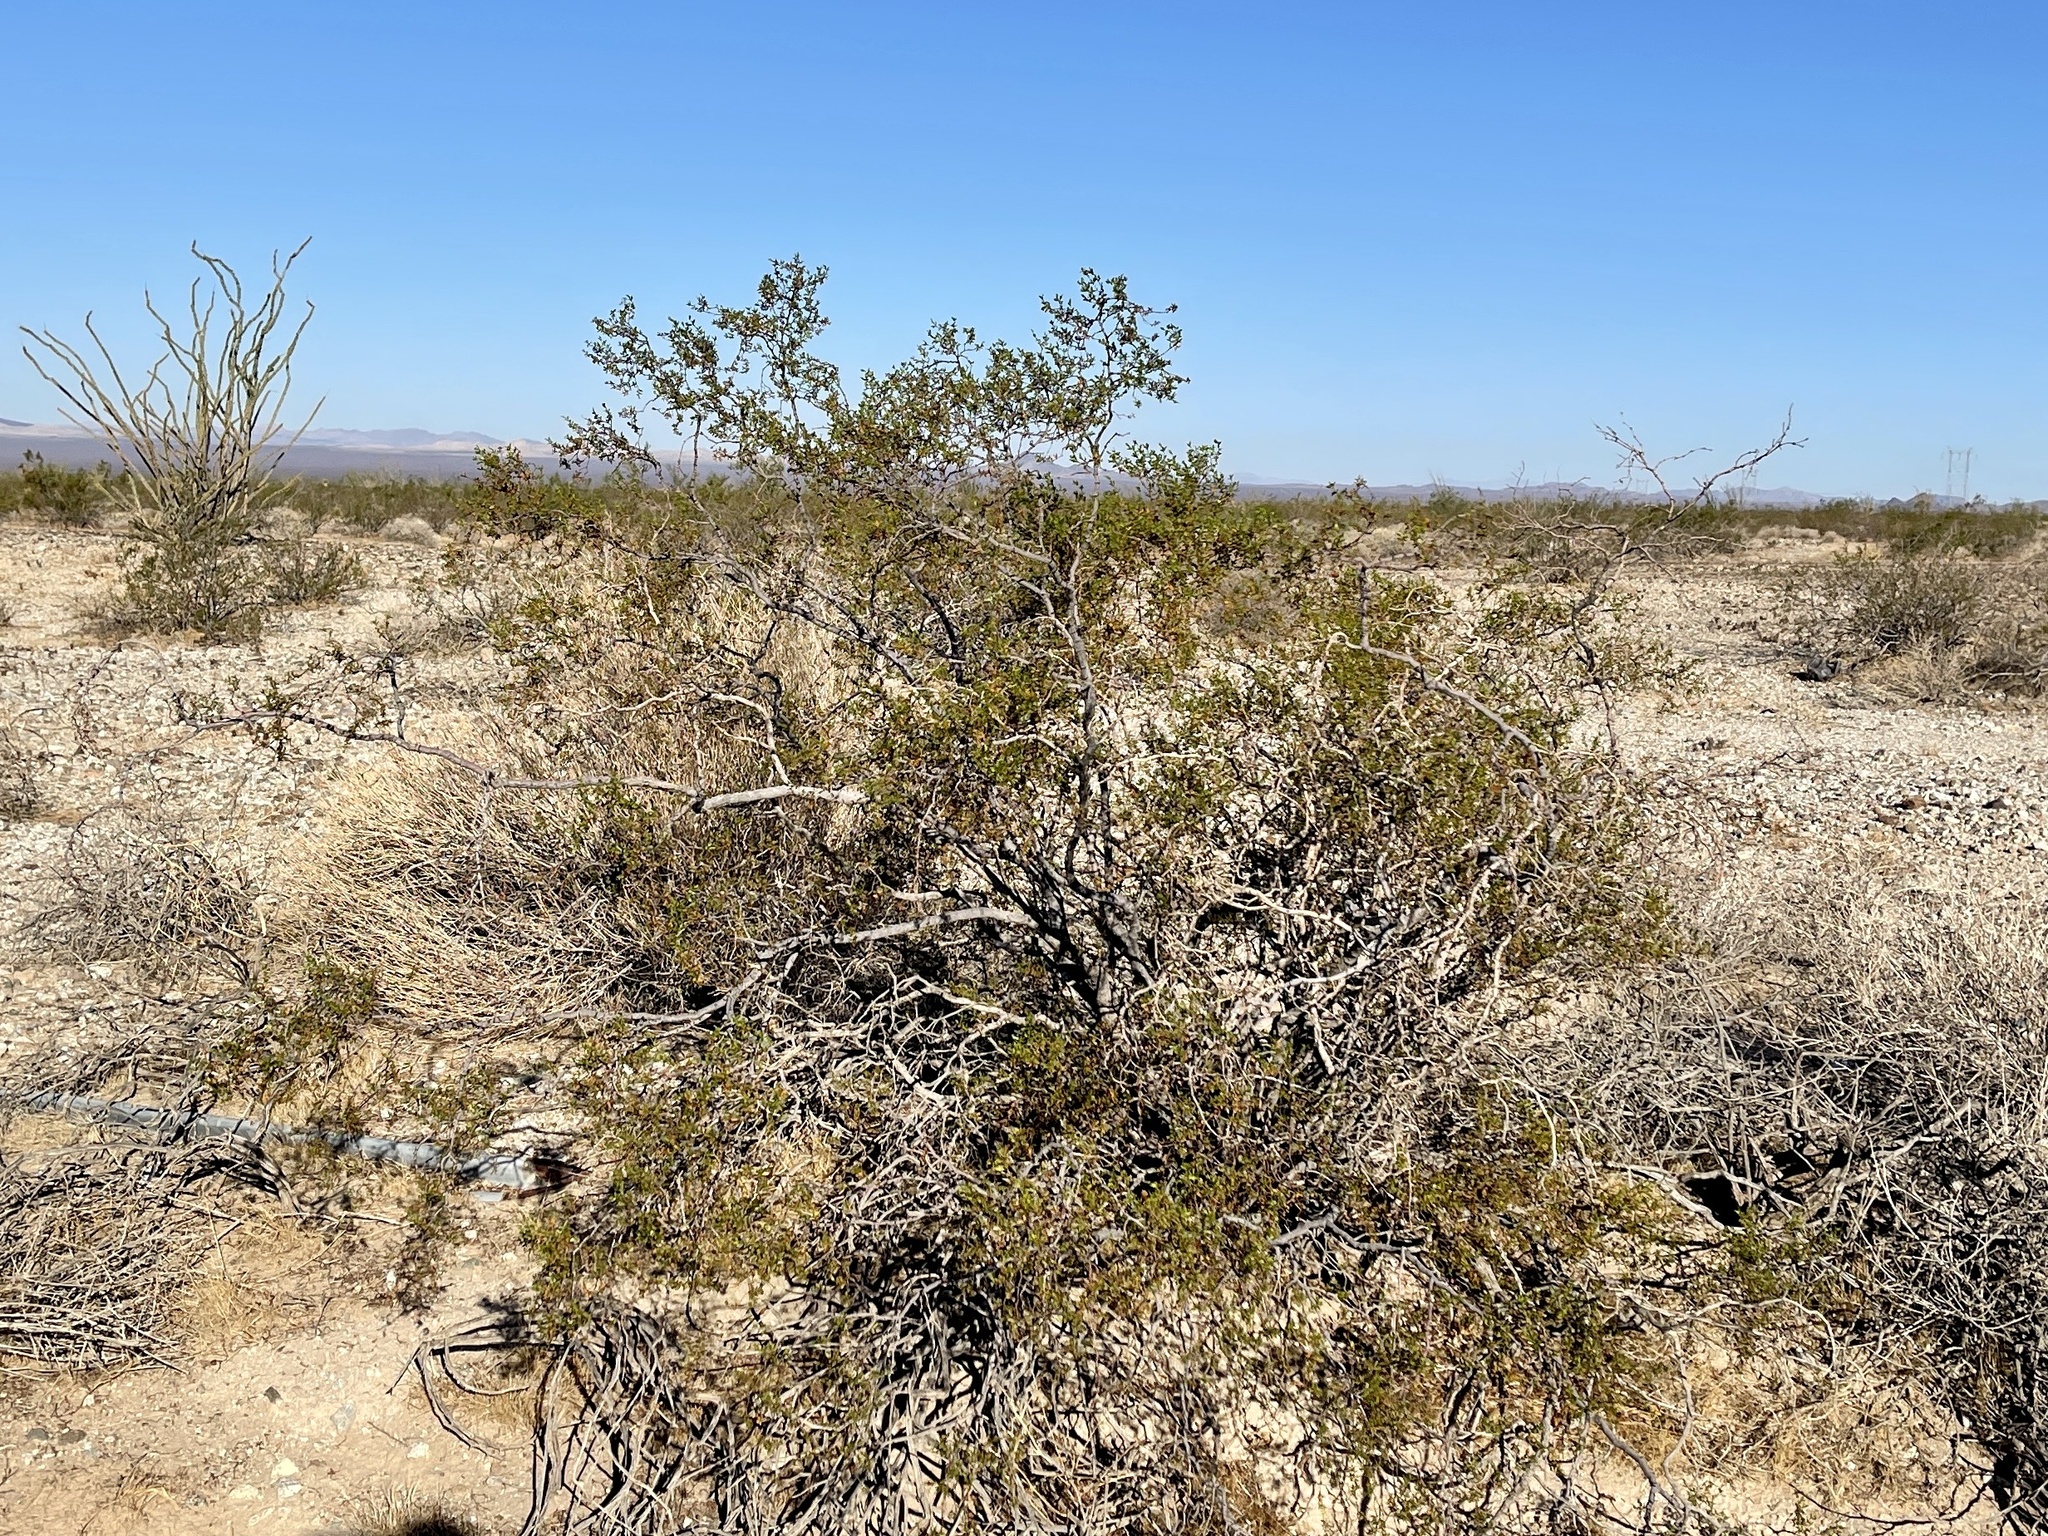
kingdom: Plantae
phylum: Tracheophyta
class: Magnoliopsida
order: Zygophyllales
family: Zygophyllaceae
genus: Larrea
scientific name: Larrea tridentata
